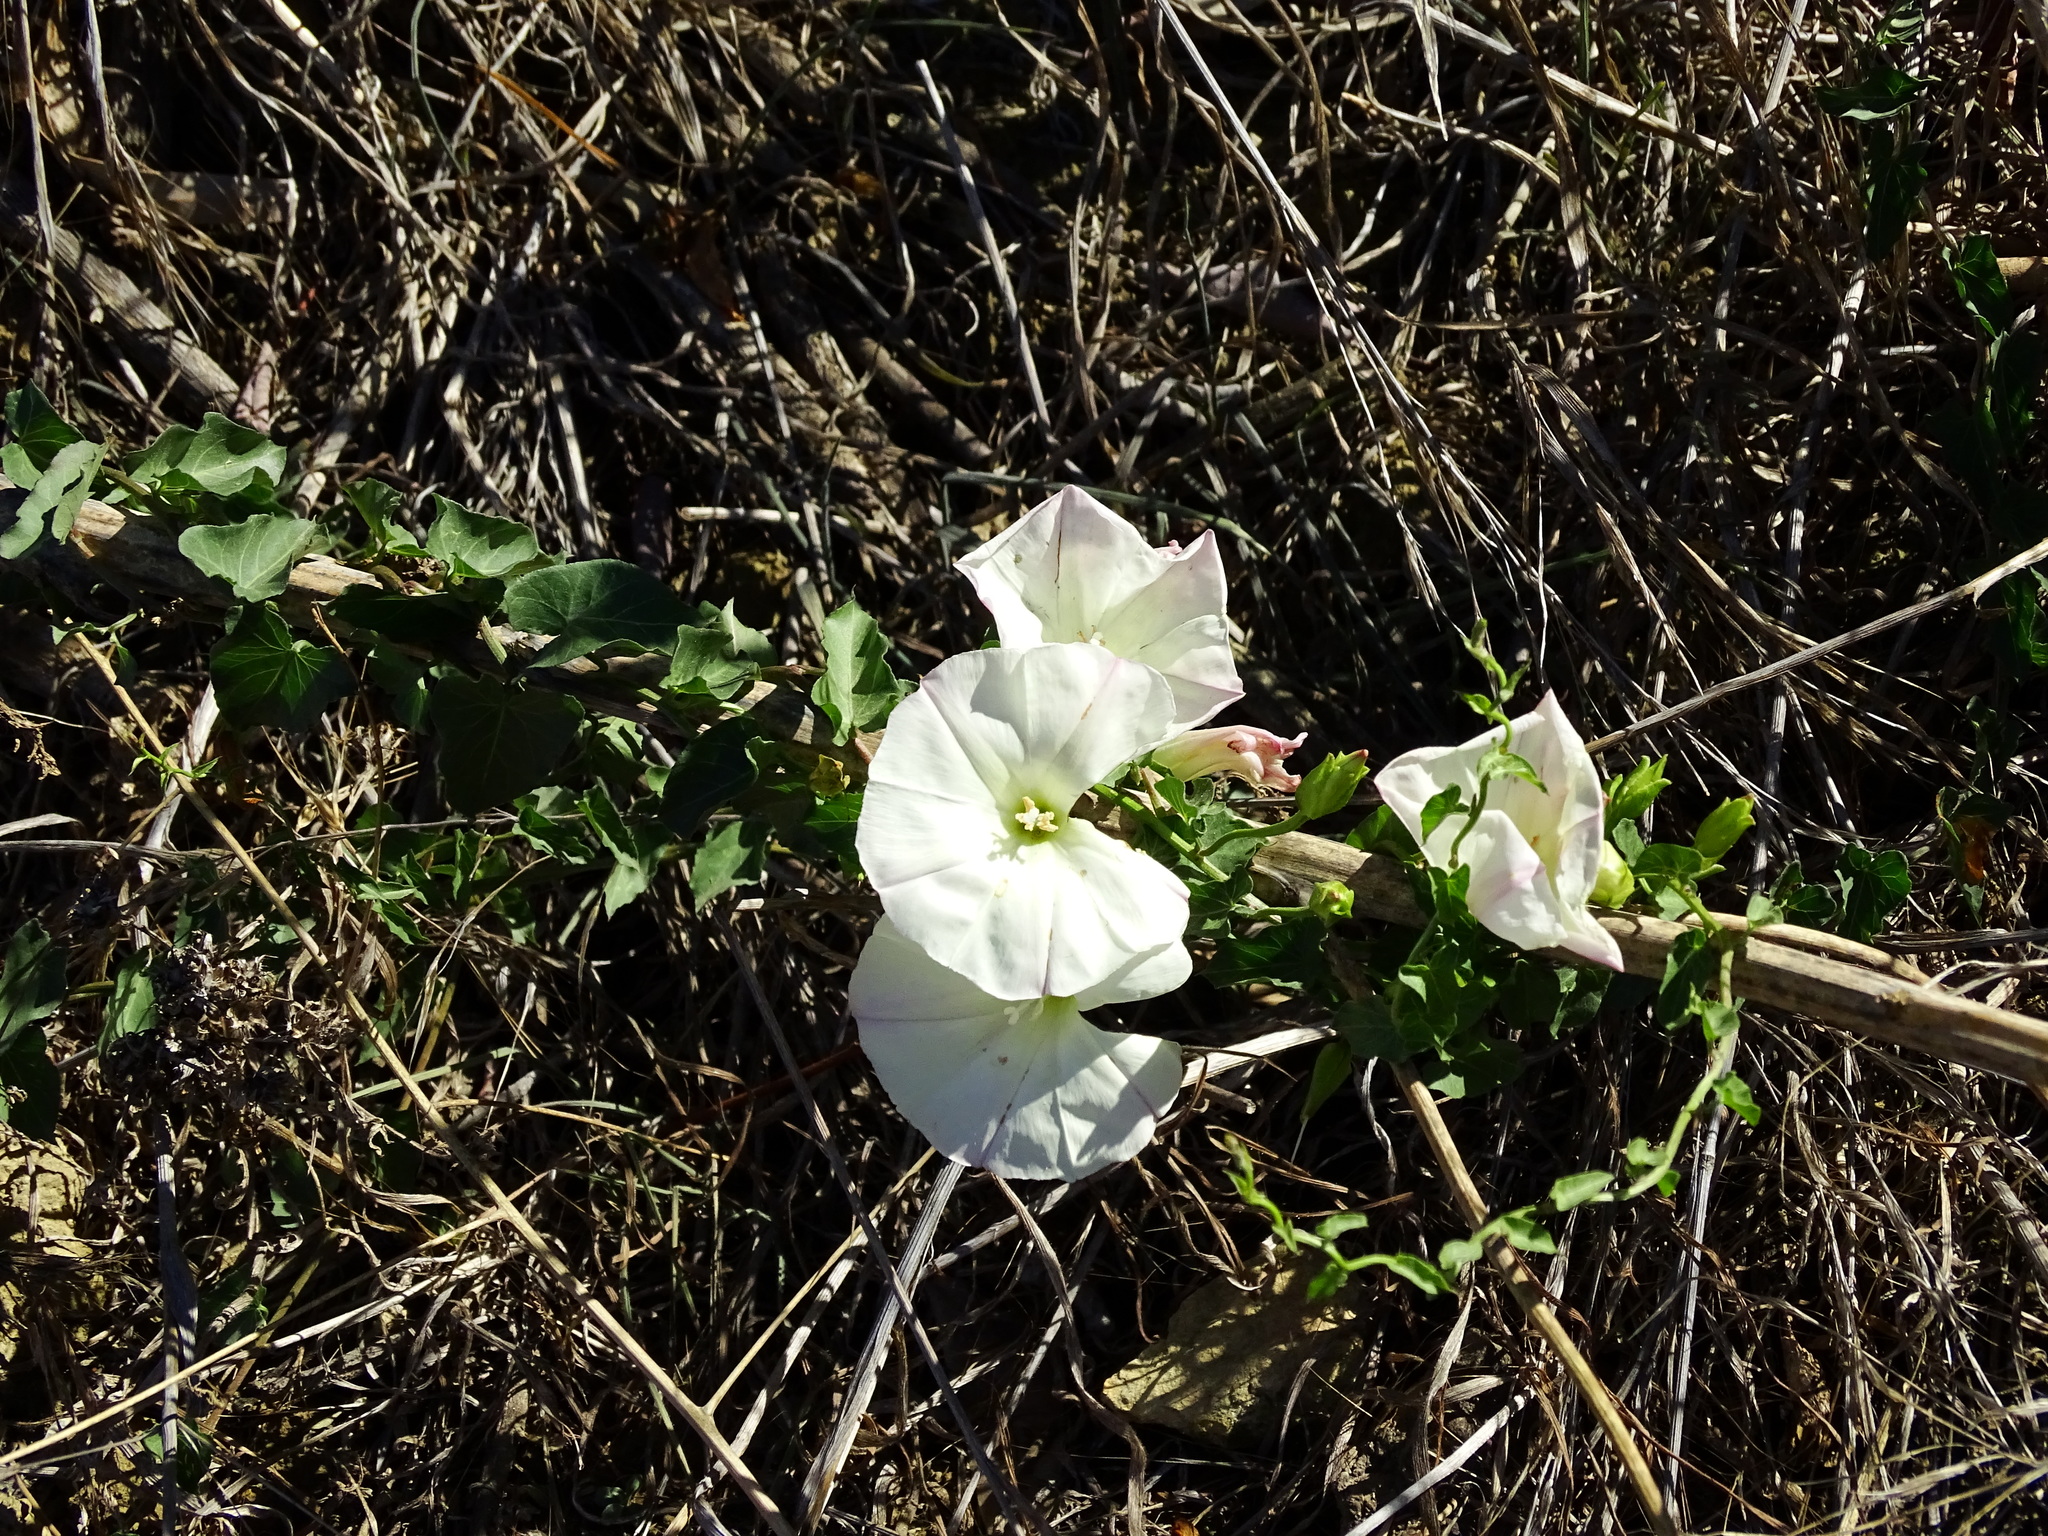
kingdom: Plantae
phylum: Tracheophyta
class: Magnoliopsida
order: Solanales
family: Convolvulaceae
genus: Calystegia
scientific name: Calystegia macrostegia
